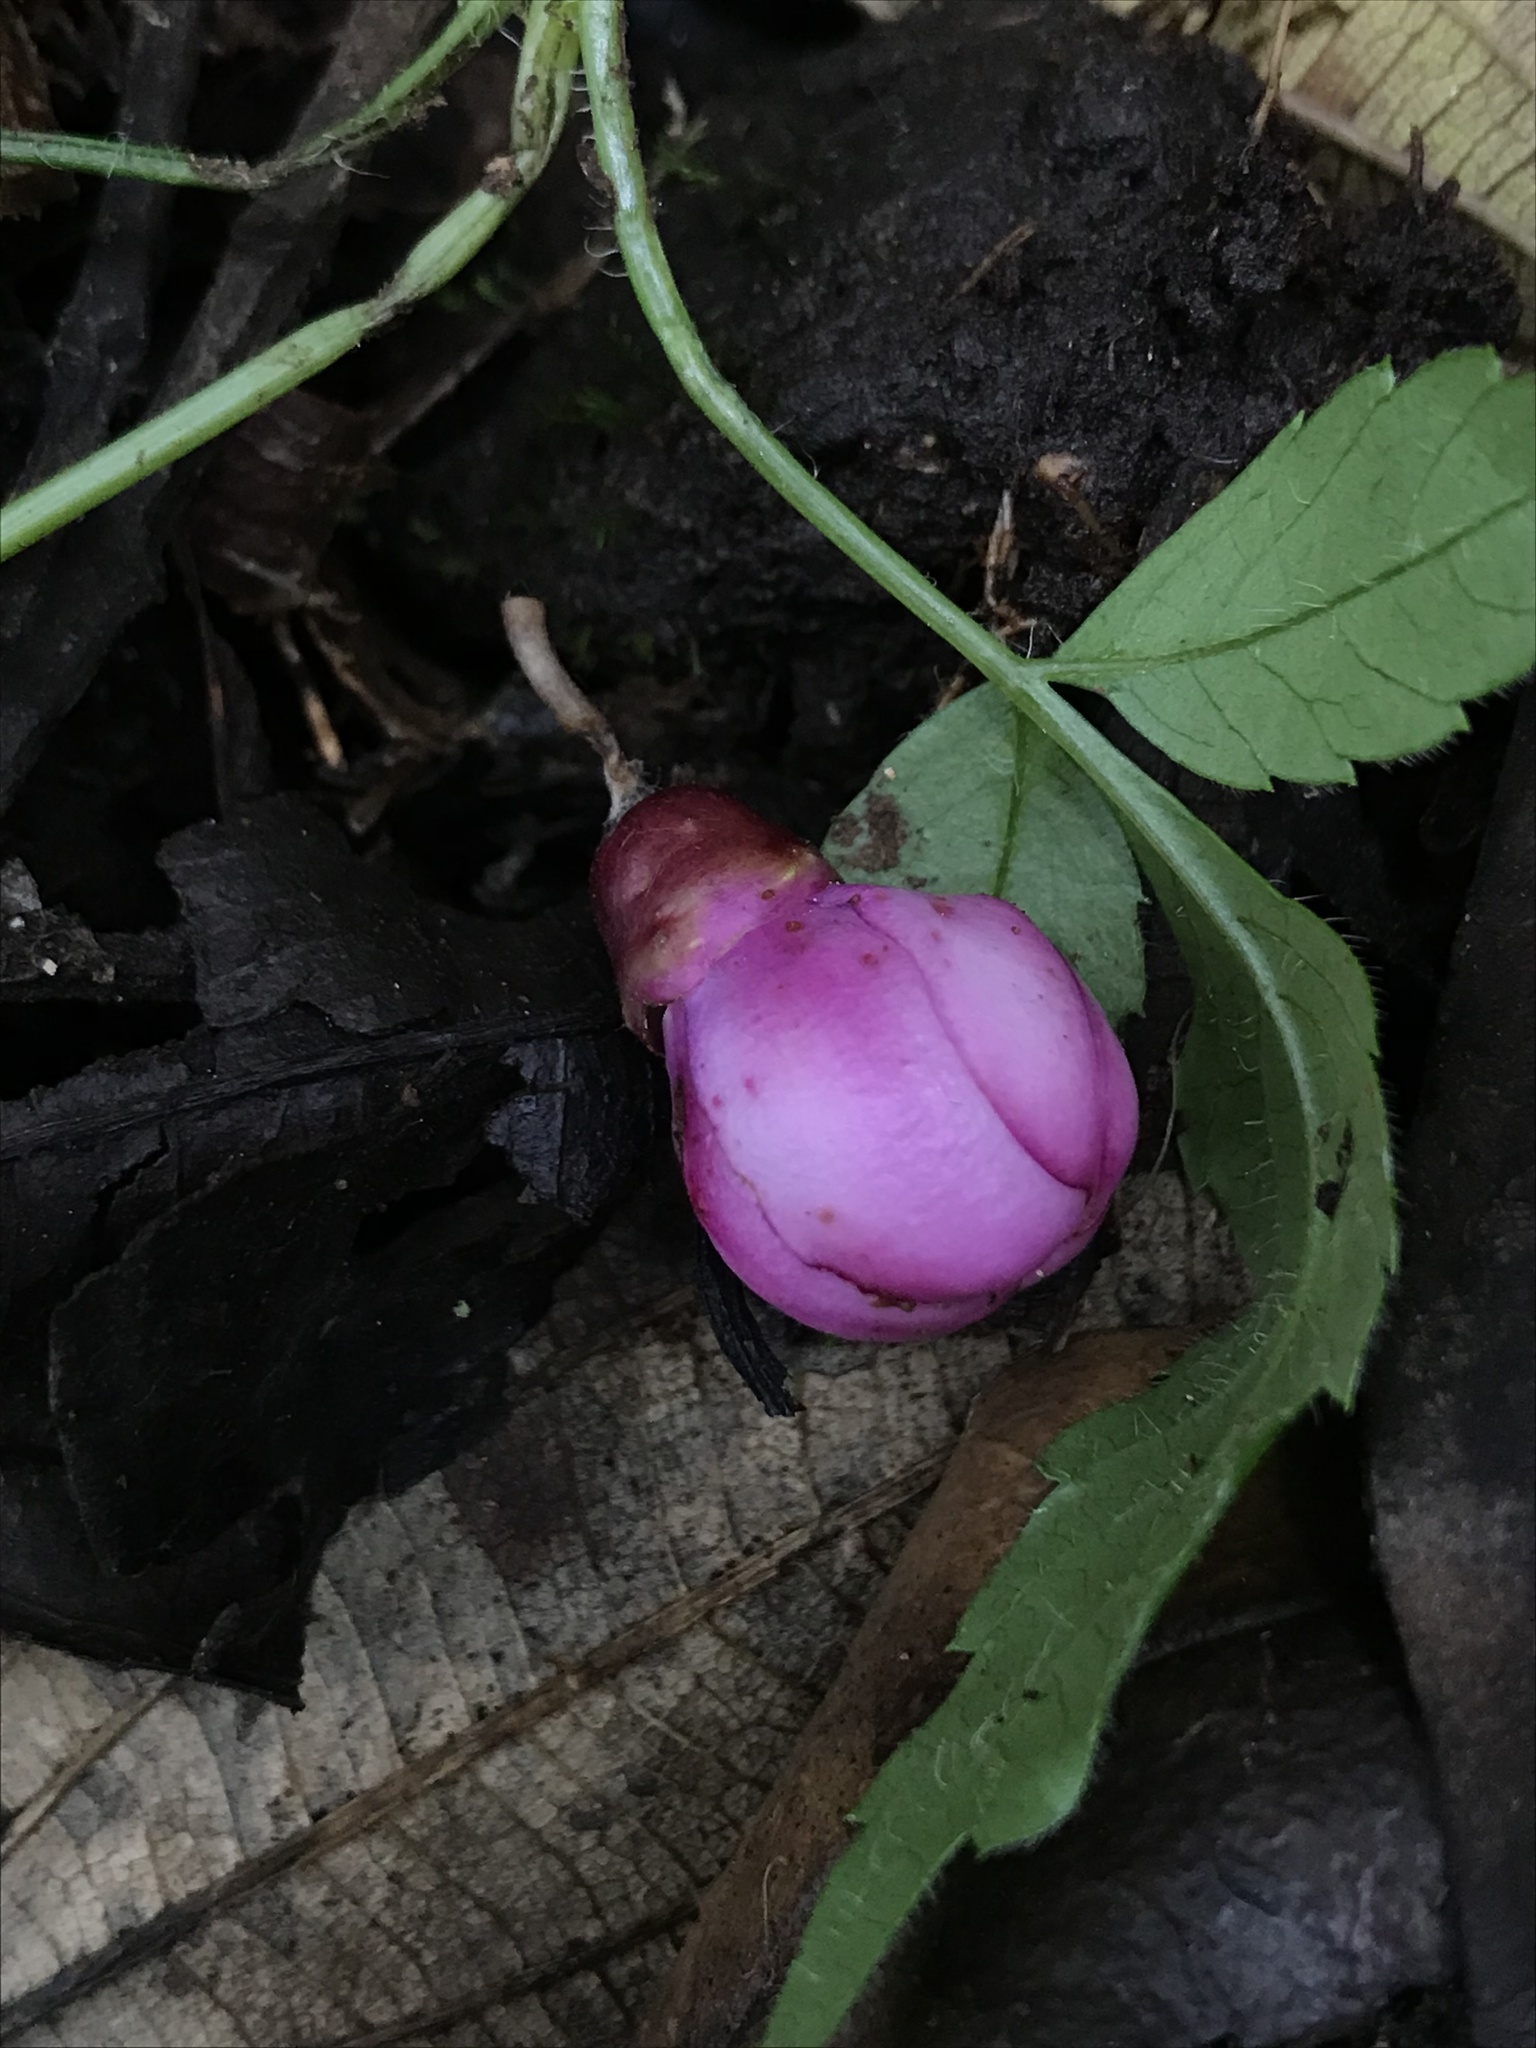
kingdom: Plantae
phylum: Tracheophyta
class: Magnoliopsida
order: Myrtales
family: Melastomataceae
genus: Axinaea
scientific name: Axinaea macrophylla
